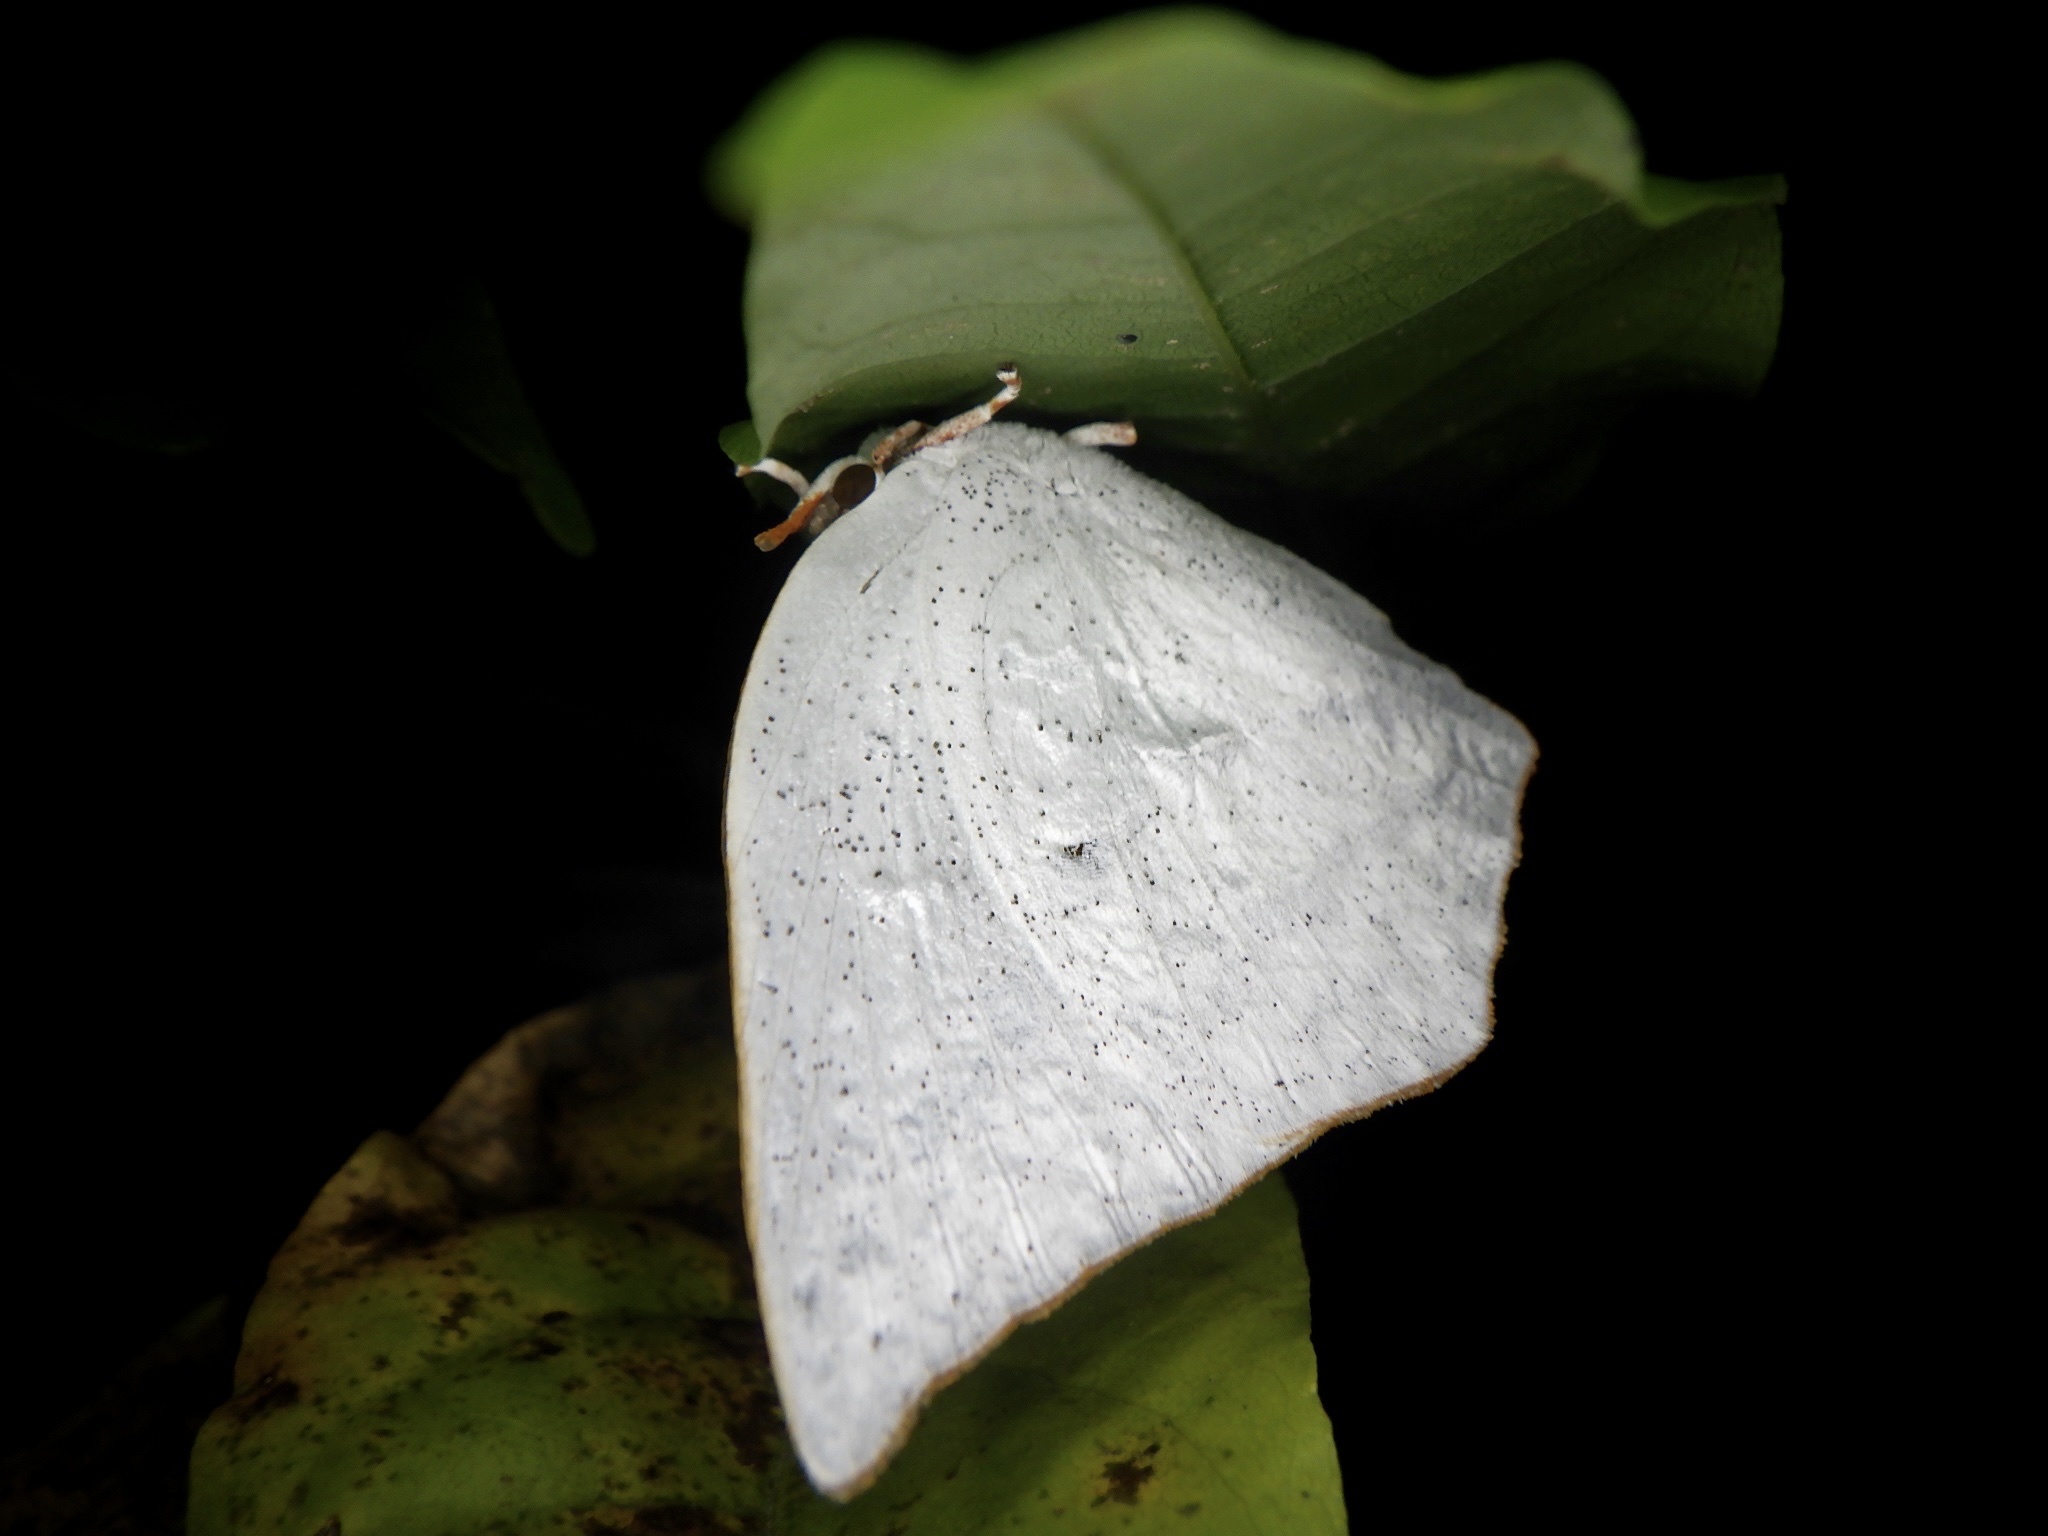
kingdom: Animalia
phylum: Arthropoda
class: Insecta
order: Lepidoptera
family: Lycaenidae
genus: Curetis
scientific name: Curetis acuta
